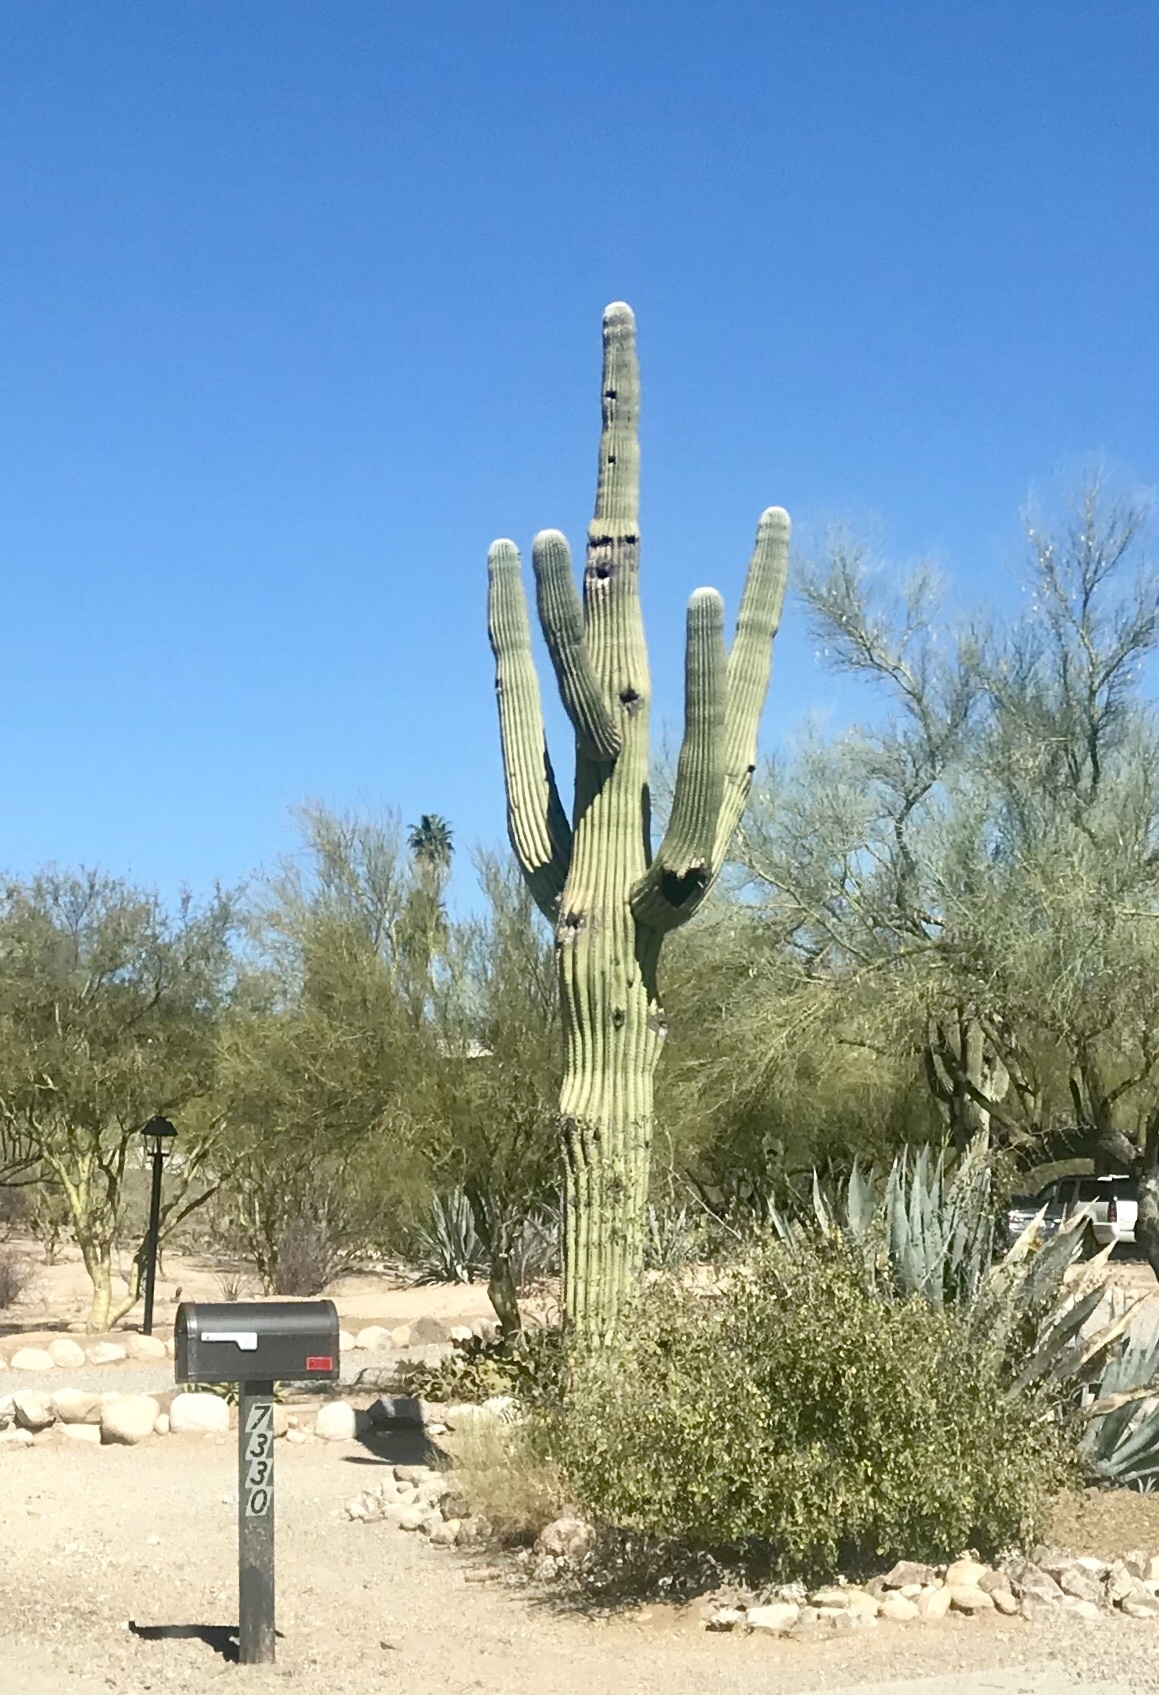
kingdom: Plantae
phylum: Tracheophyta
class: Magnoliopsida
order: Caryophyllales
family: Cactaceae
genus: Carnegiea
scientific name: Carnegiea gigantea
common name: Saguaro
